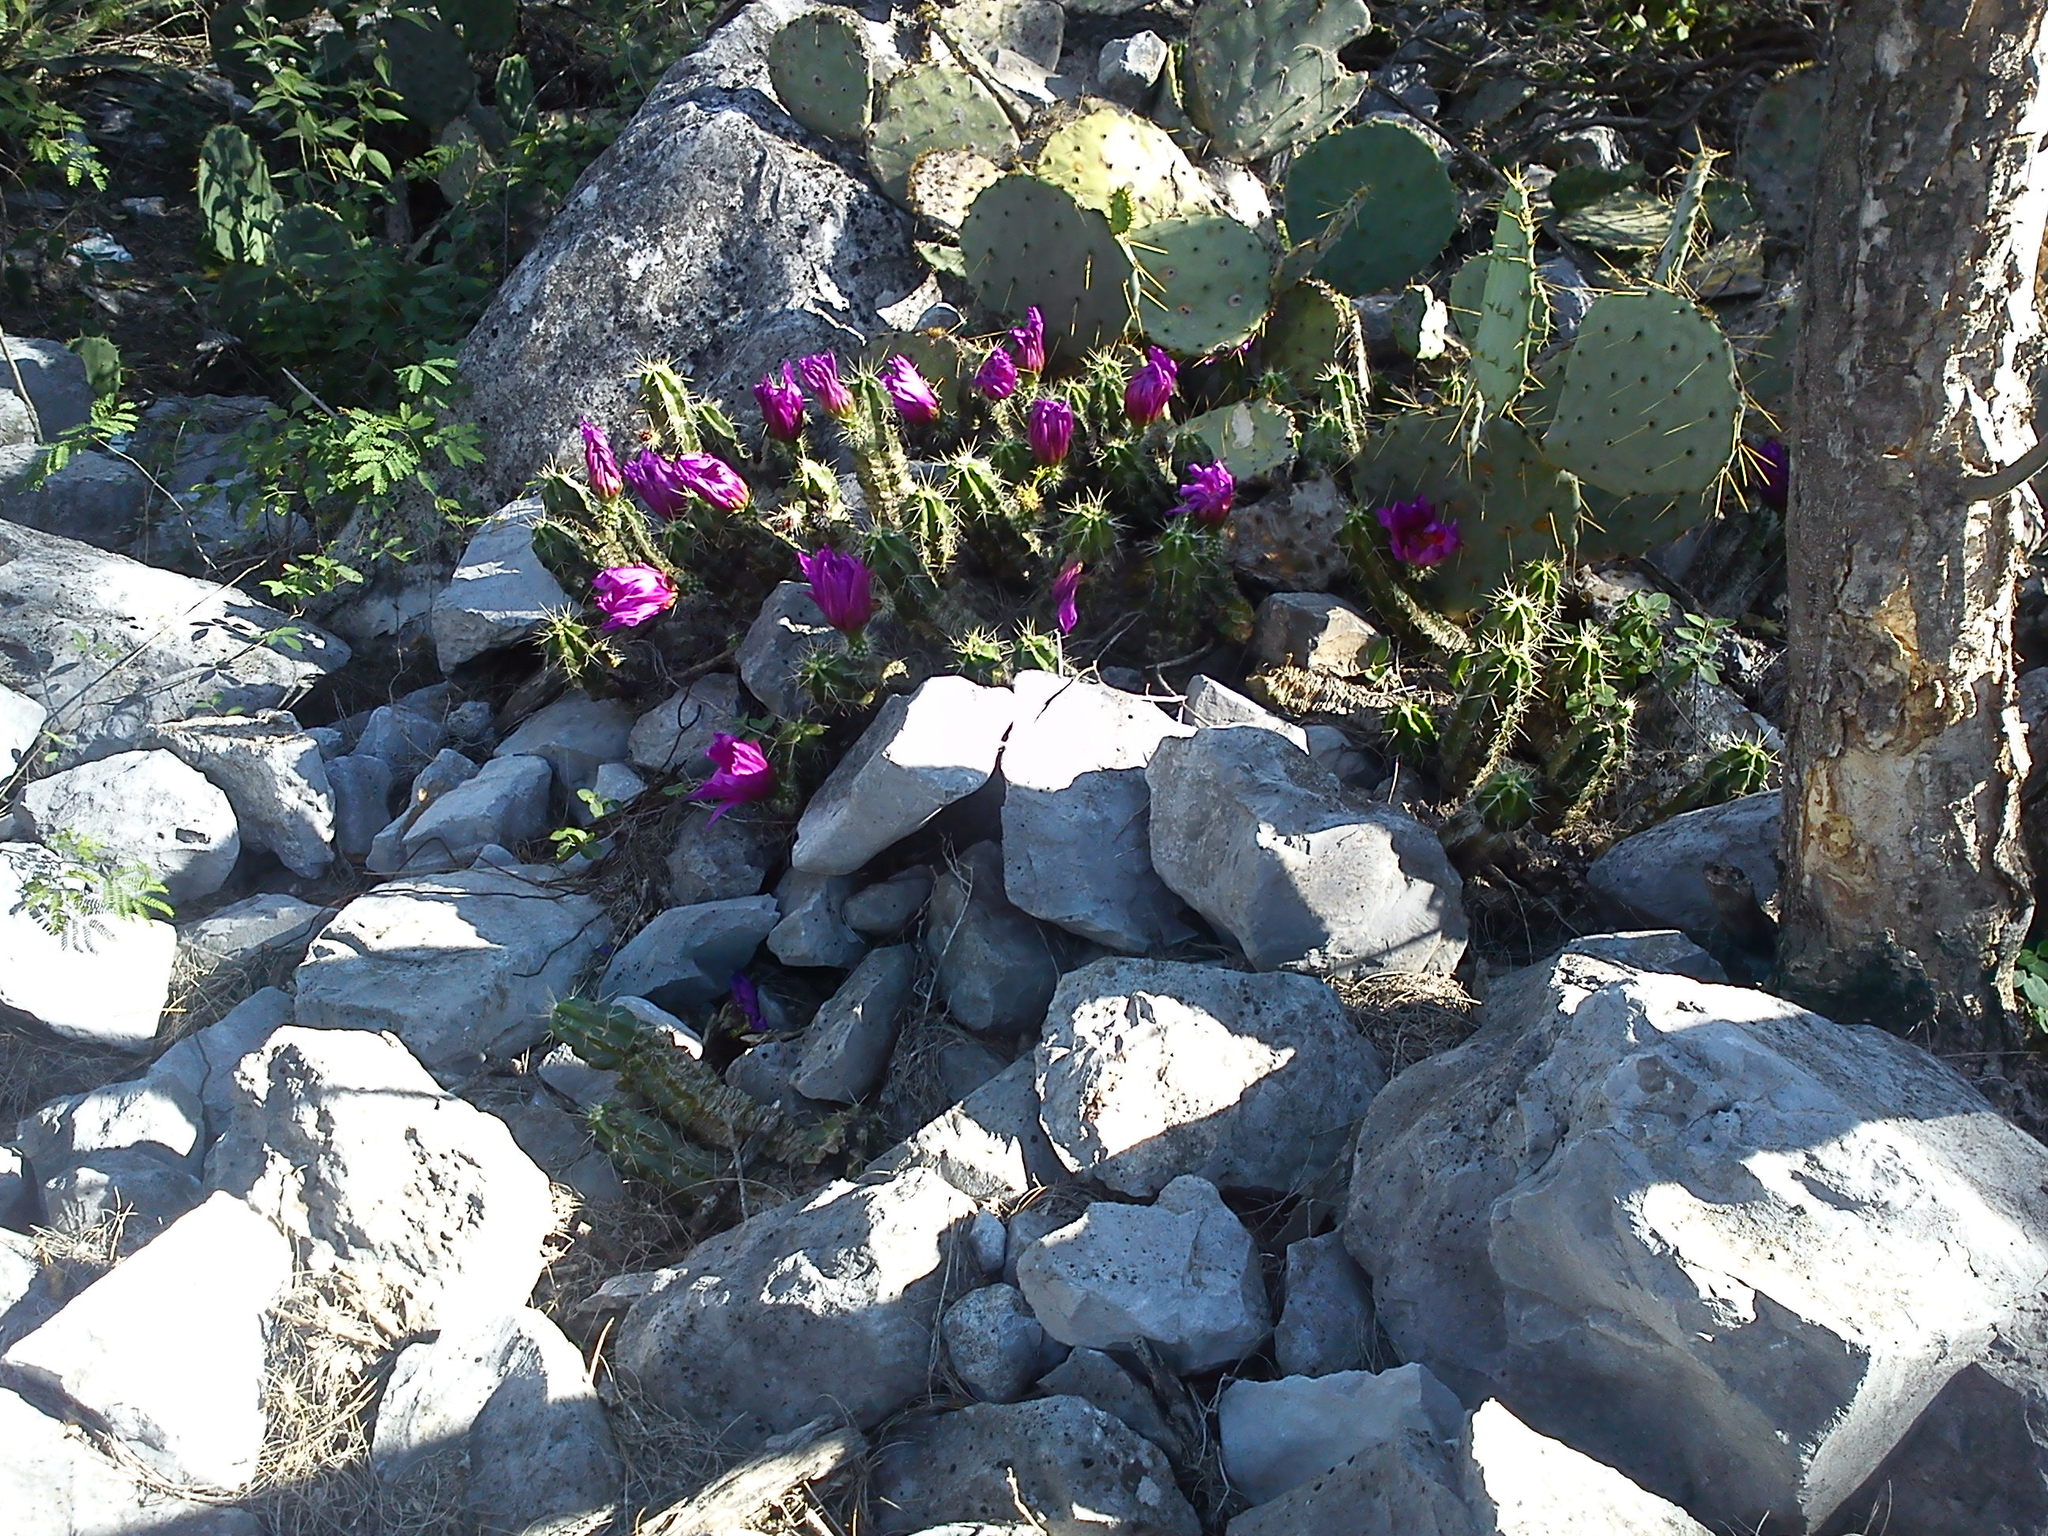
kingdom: Plantae
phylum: Tracheophyta
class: Magnoliopsida
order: Caryophyllales
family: Cactaceae
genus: Echinocereus
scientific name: Echinocereus viereckii
